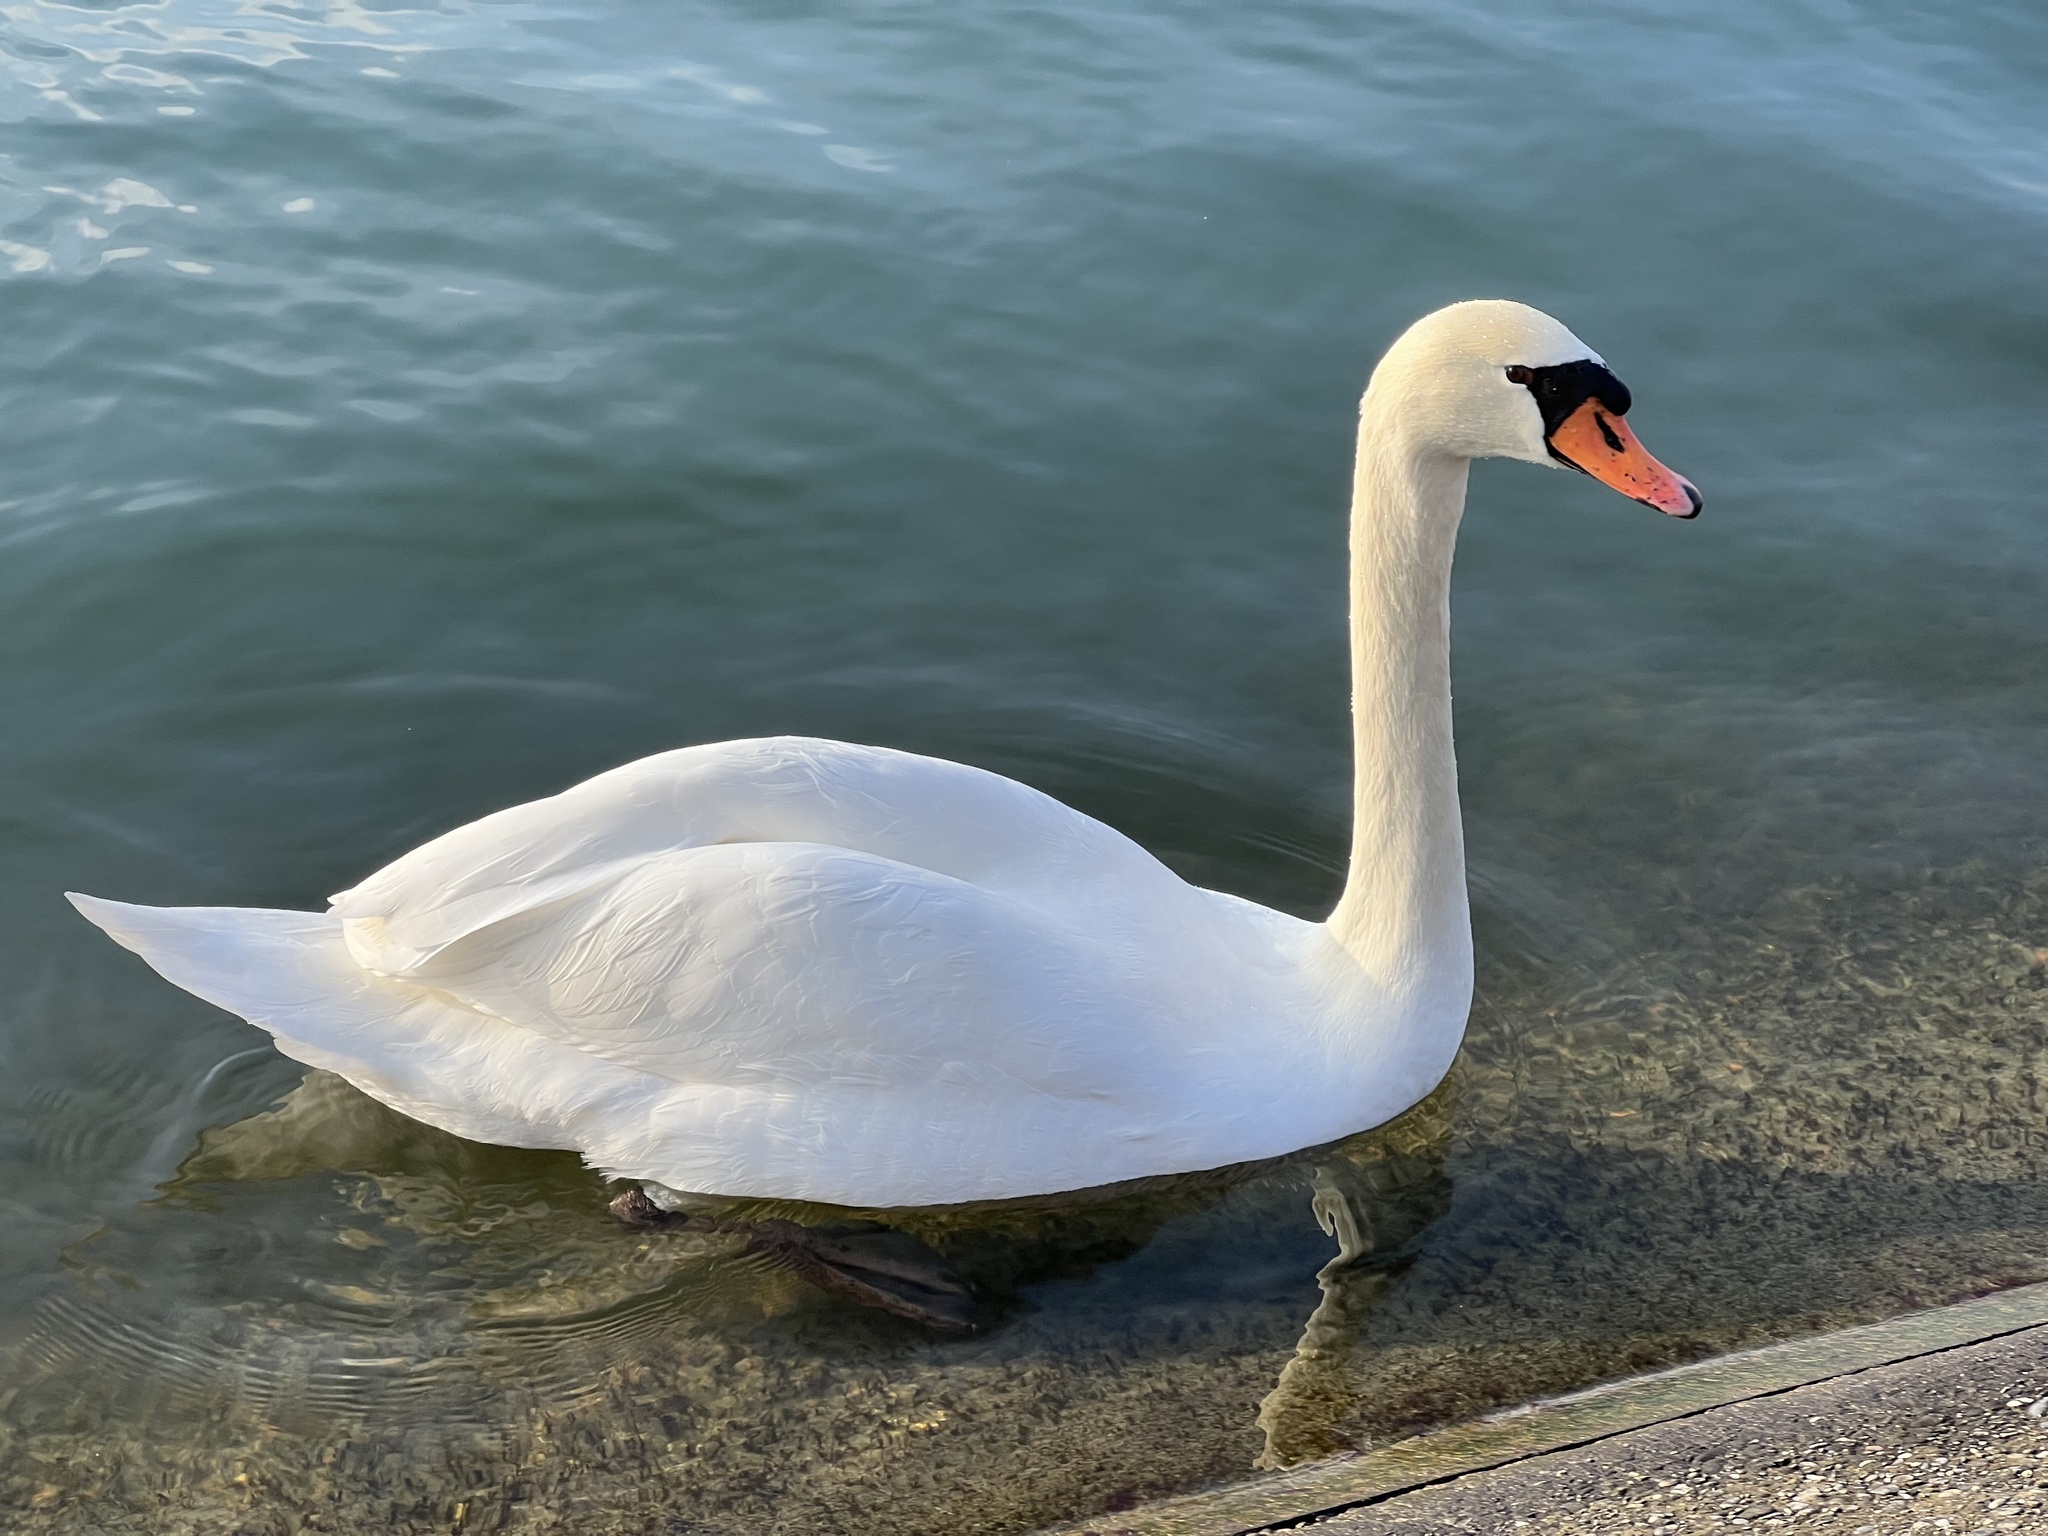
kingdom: Animalia
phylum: Chordata
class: Aves
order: Anseriformes
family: Anatidae
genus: Cygnus
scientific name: Cygnus olor
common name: Mute swan
